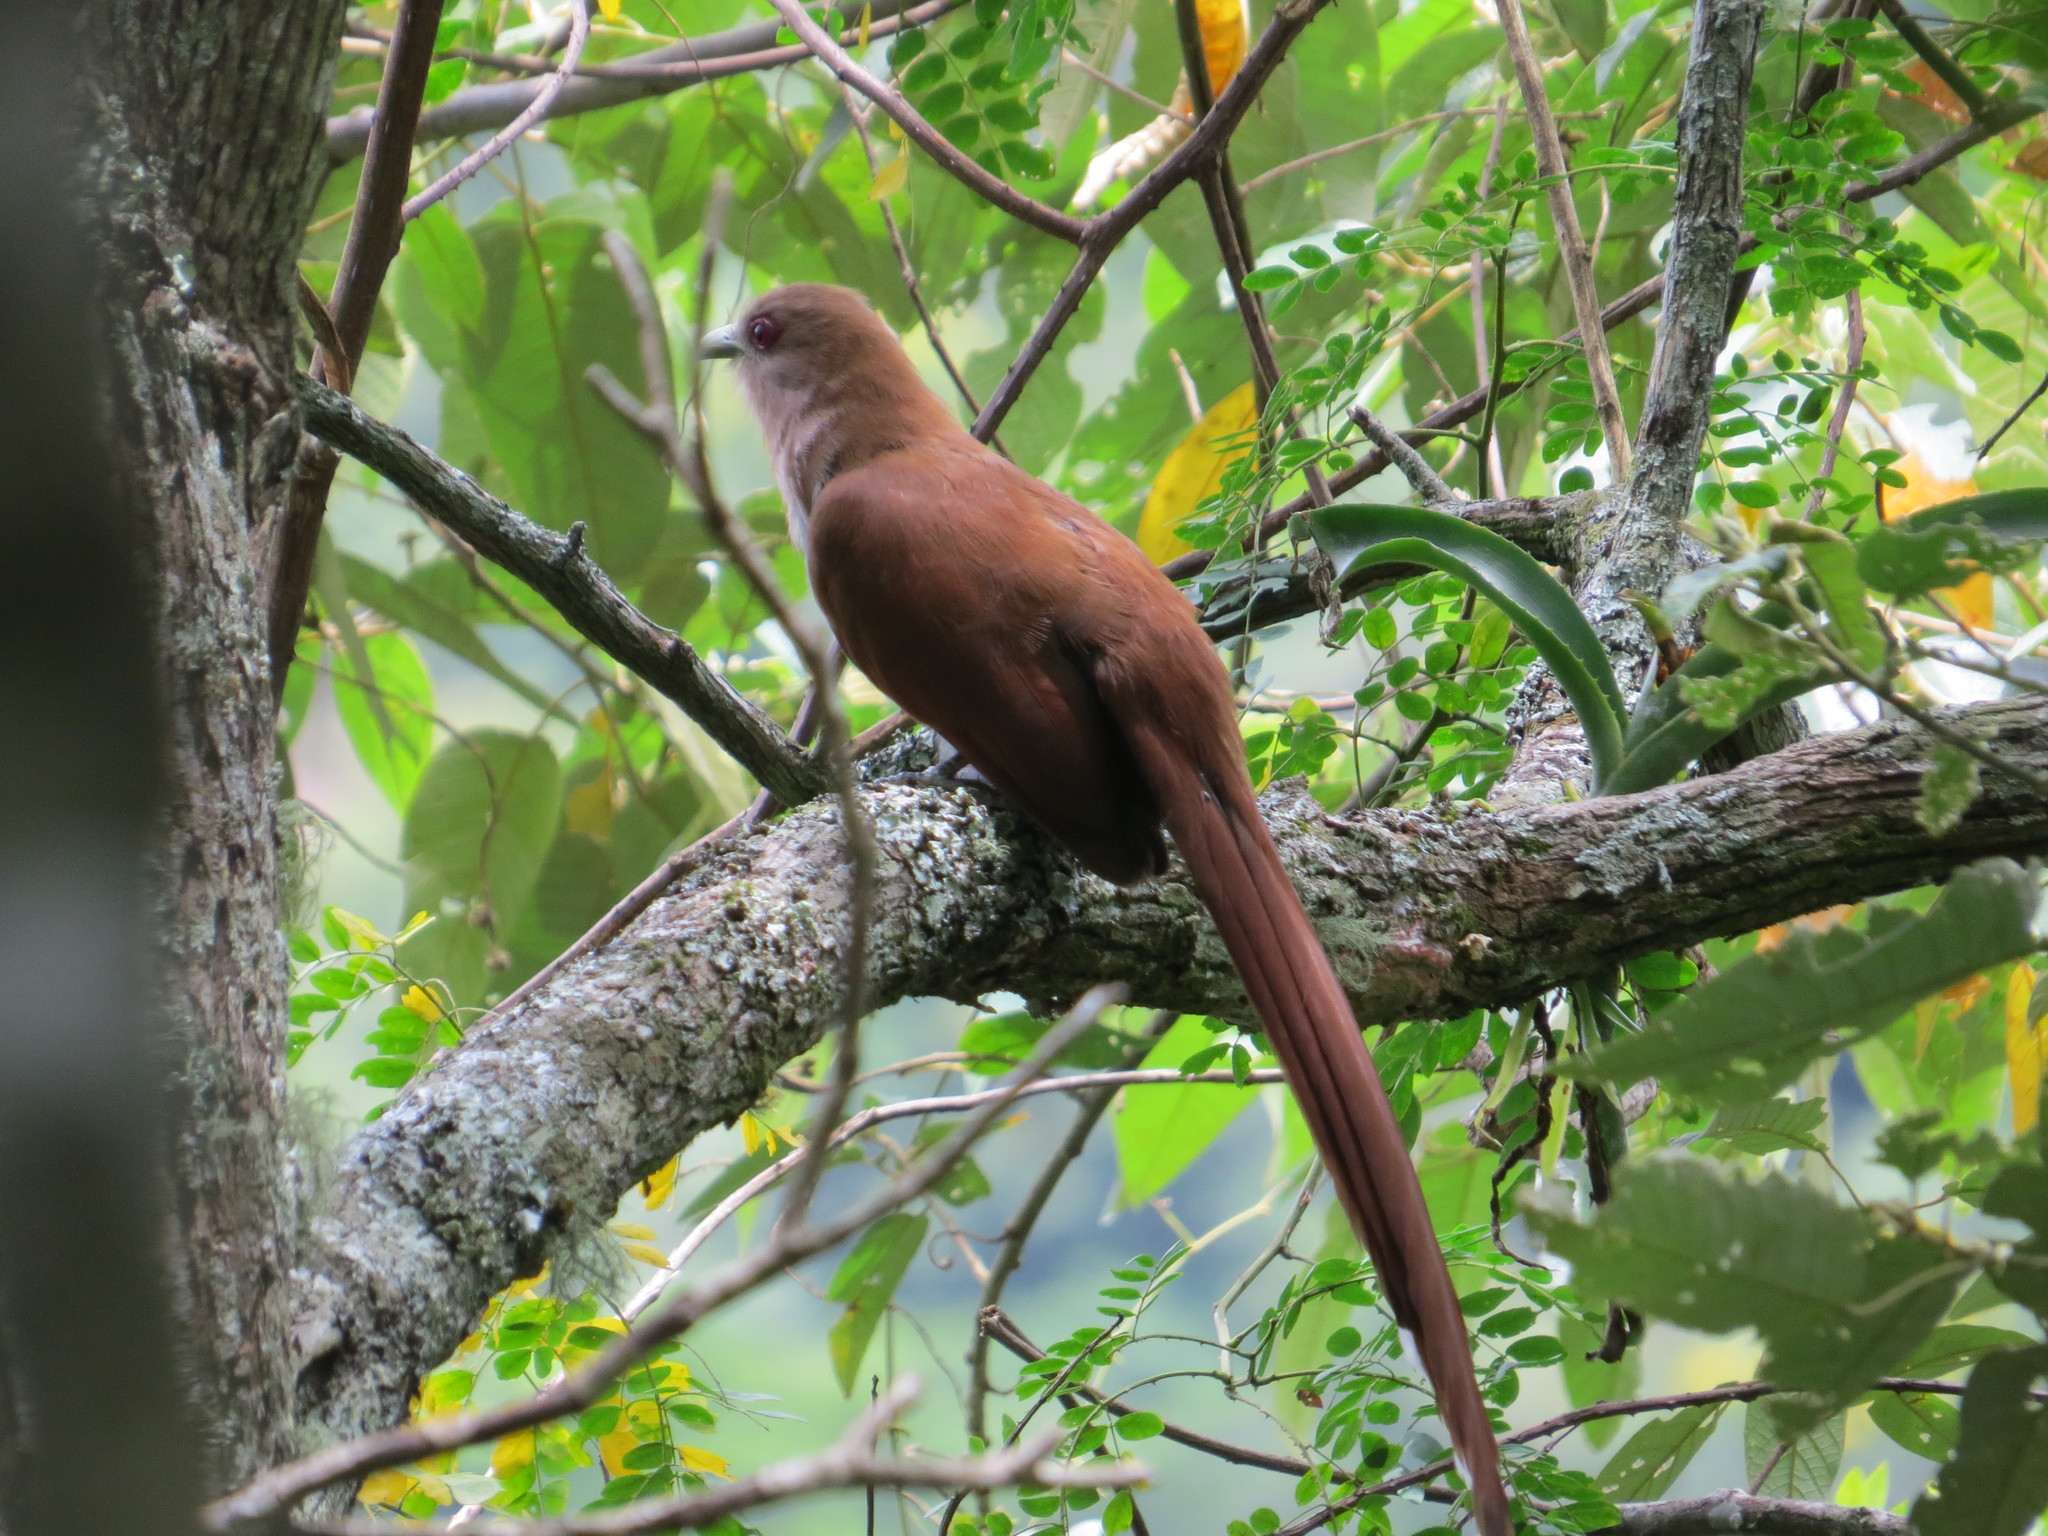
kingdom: Animalia
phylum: Chordata
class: Aves
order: Cuculiformes
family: Cuculidae
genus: Piaya
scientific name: Piaya cayana
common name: Squirrel cuckoo
